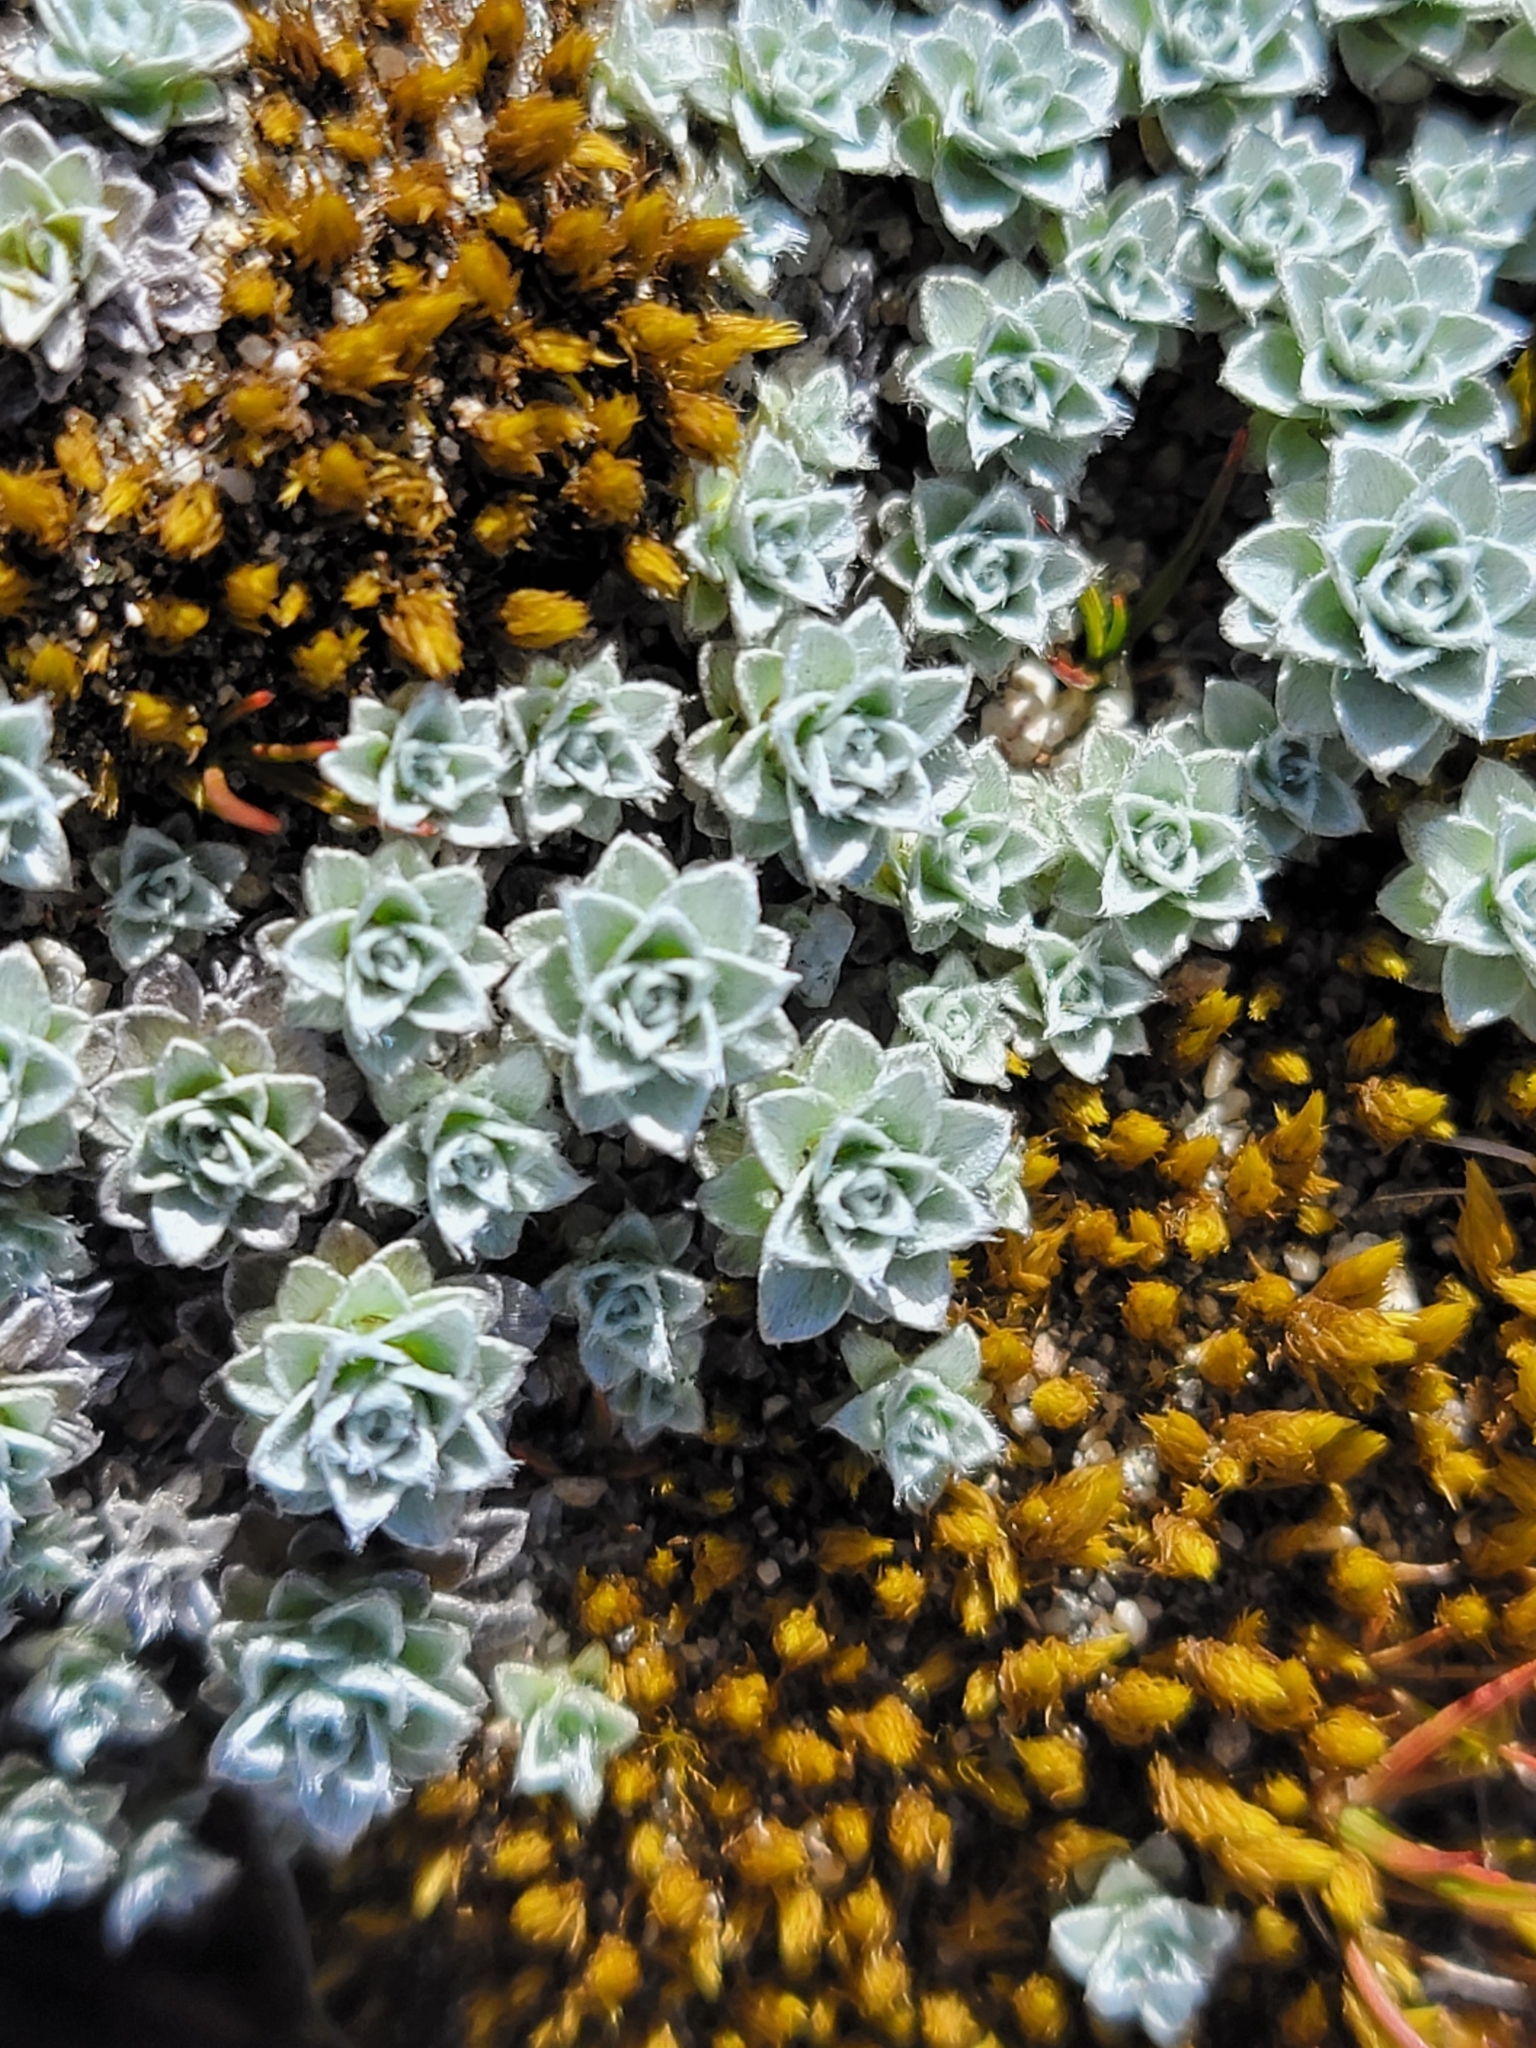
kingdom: Plantae
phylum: Tracheophyta
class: Magnoliopsida
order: Asterales
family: Asteraceae
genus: Leucogenes
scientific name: Leucogenes grandiceps
